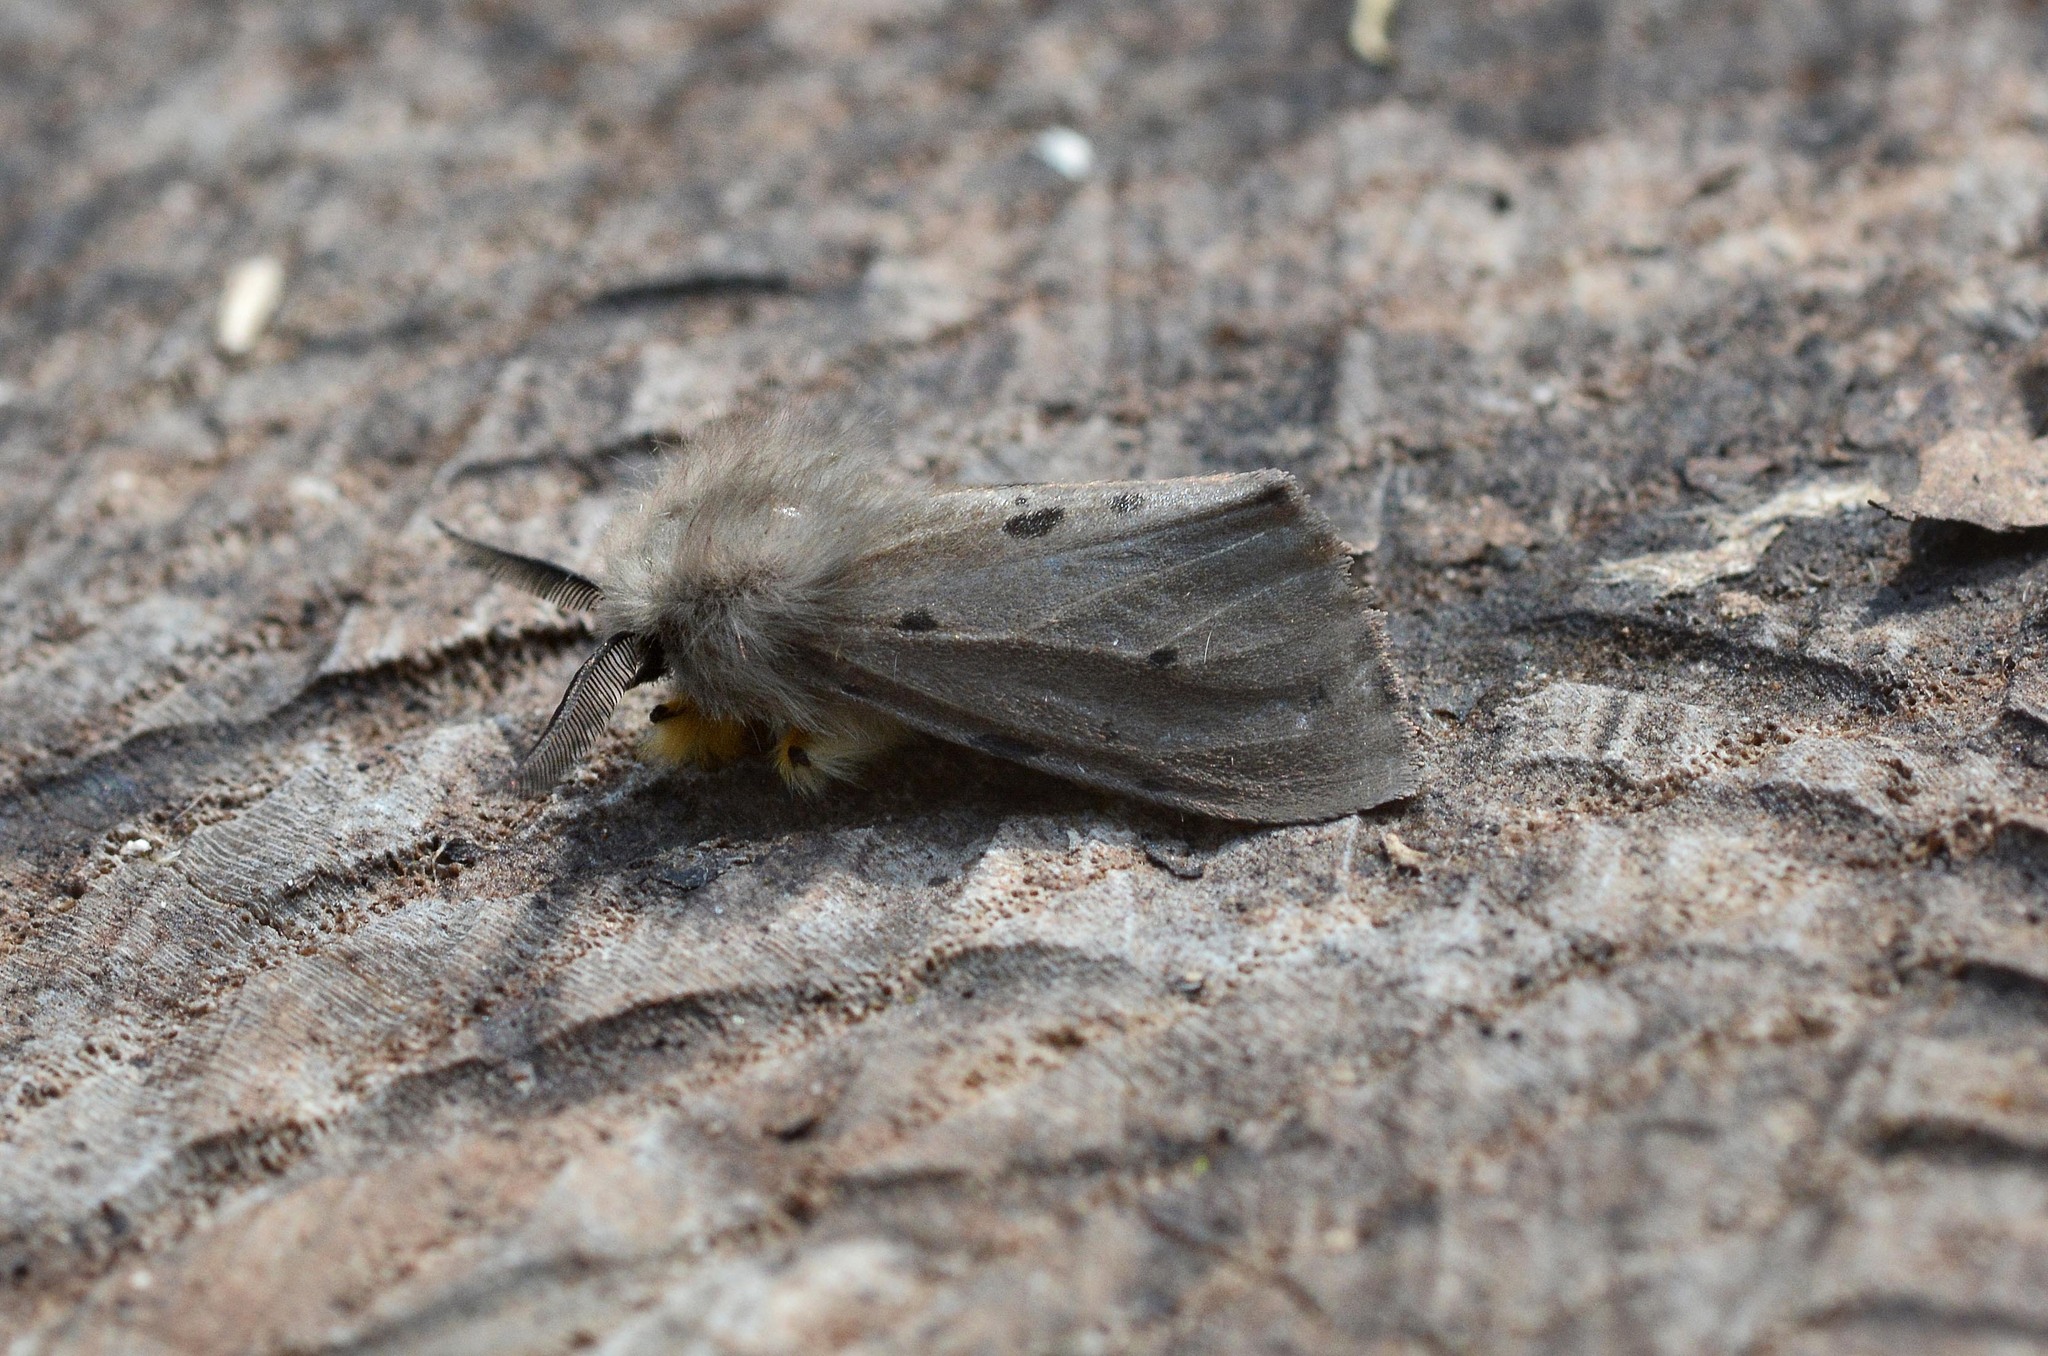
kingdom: Animalia
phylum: Arthropoda
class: Insecta
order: Lepidoptera
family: Erebidae
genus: Diaphora
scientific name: Diaphora mendica
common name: Muslin moth
